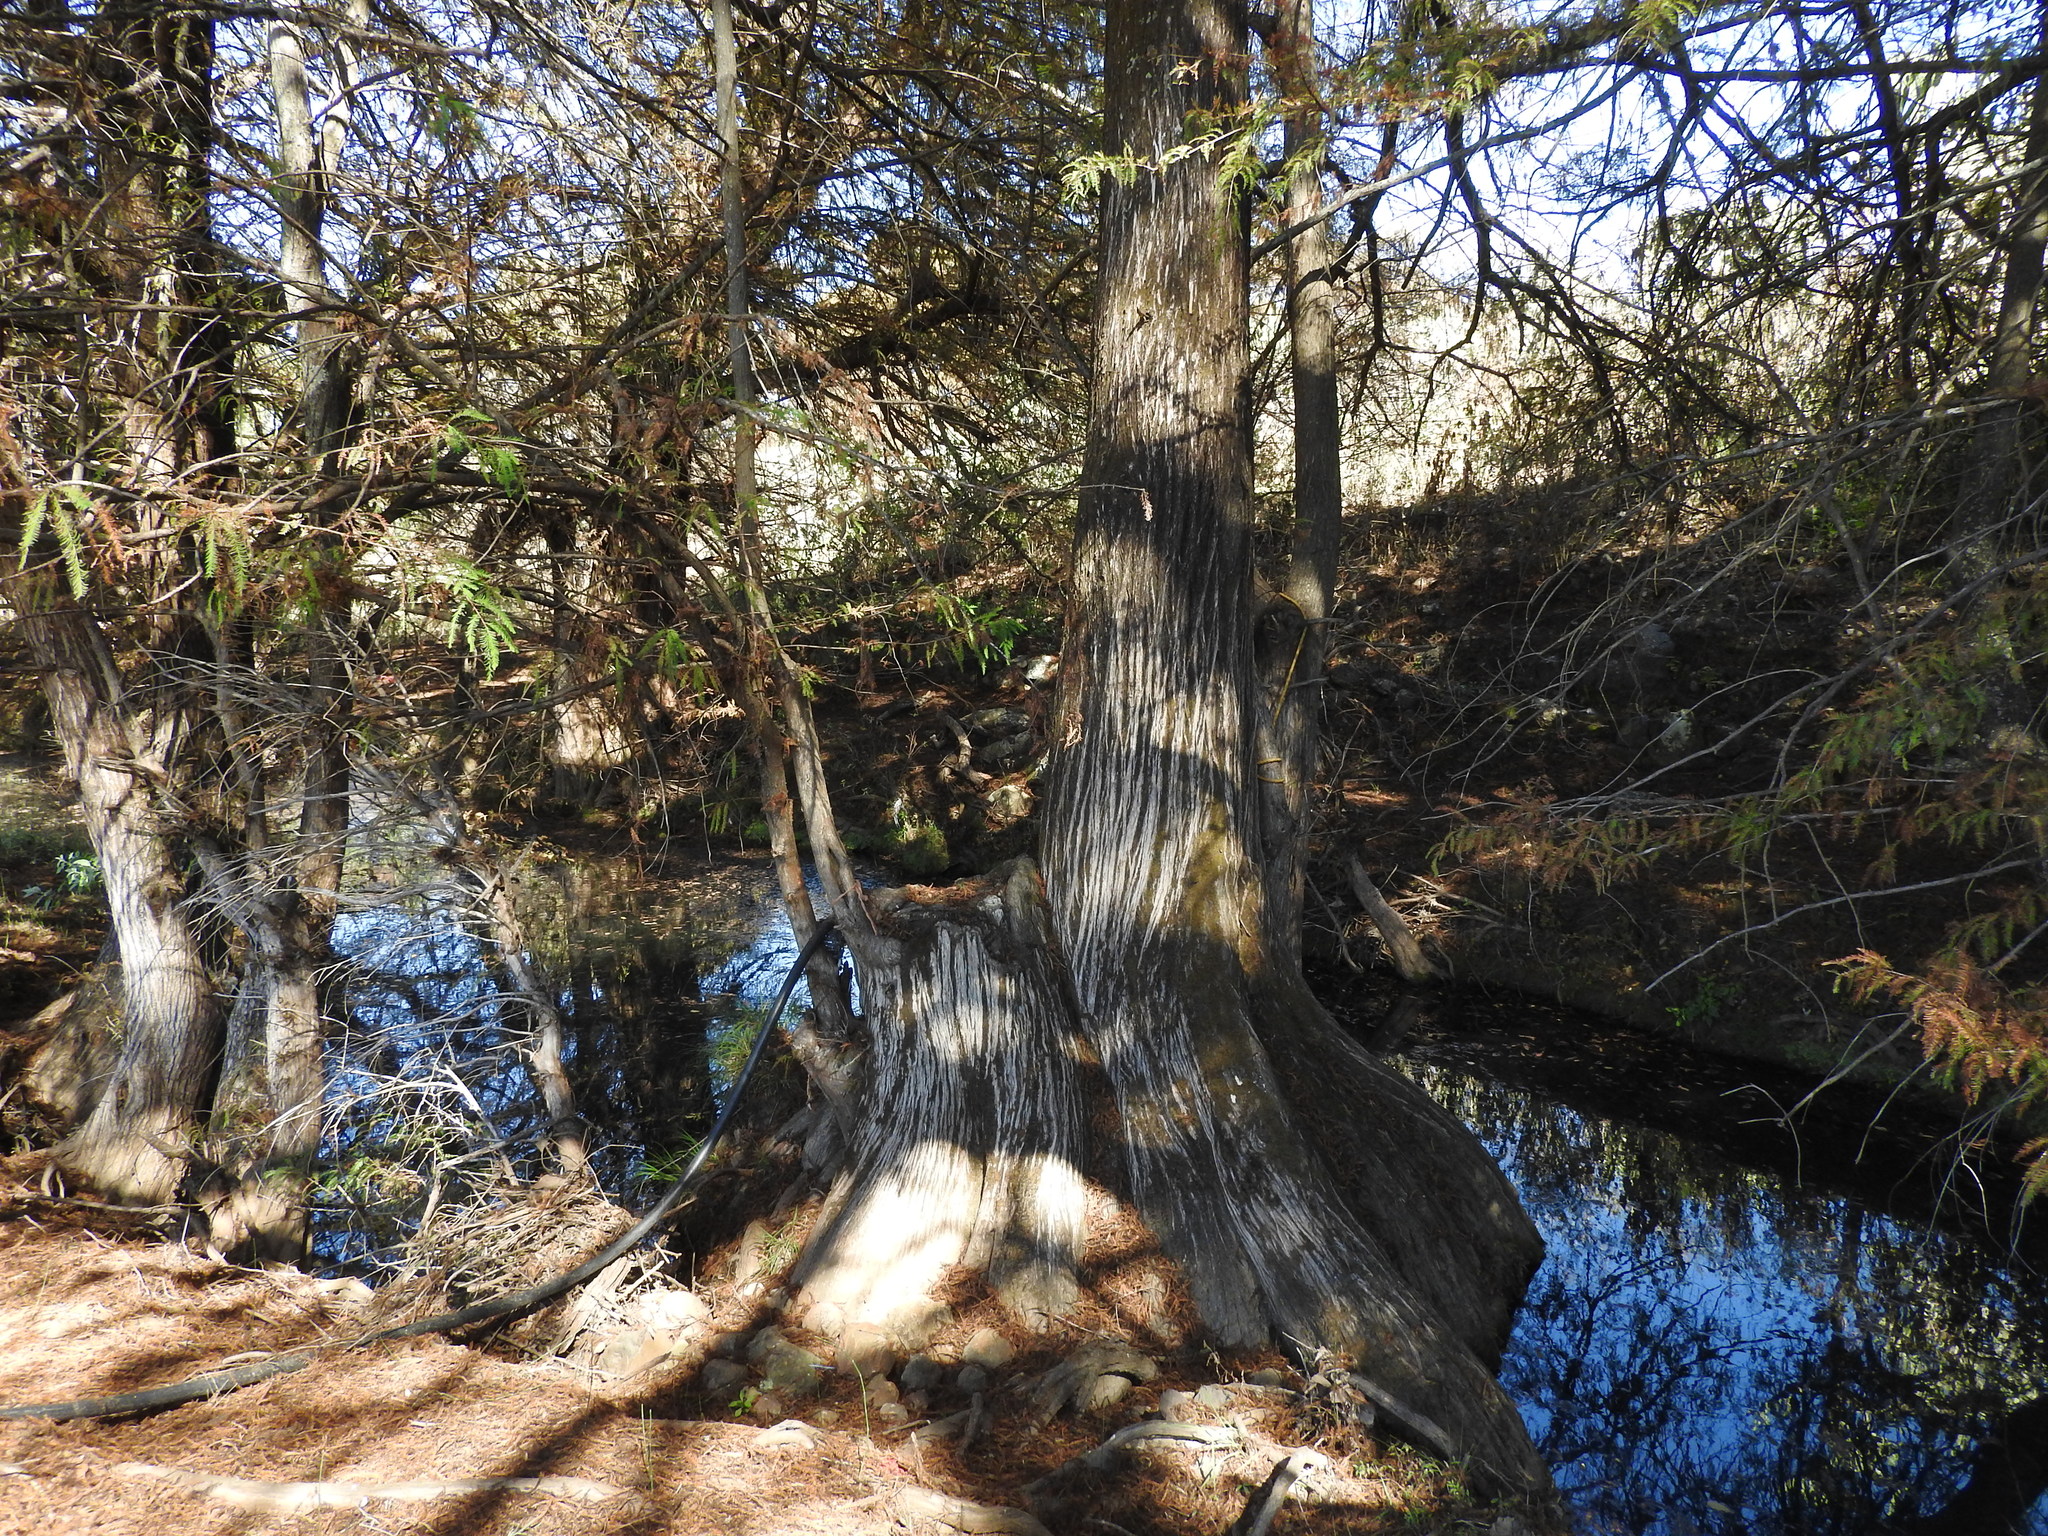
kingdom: Plantae
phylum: Tracheophyta
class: Pinopsida
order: Pinales
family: Cupressaceae
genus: Taxodium
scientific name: Taxodium mucronatum
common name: Montezume bald cypress
